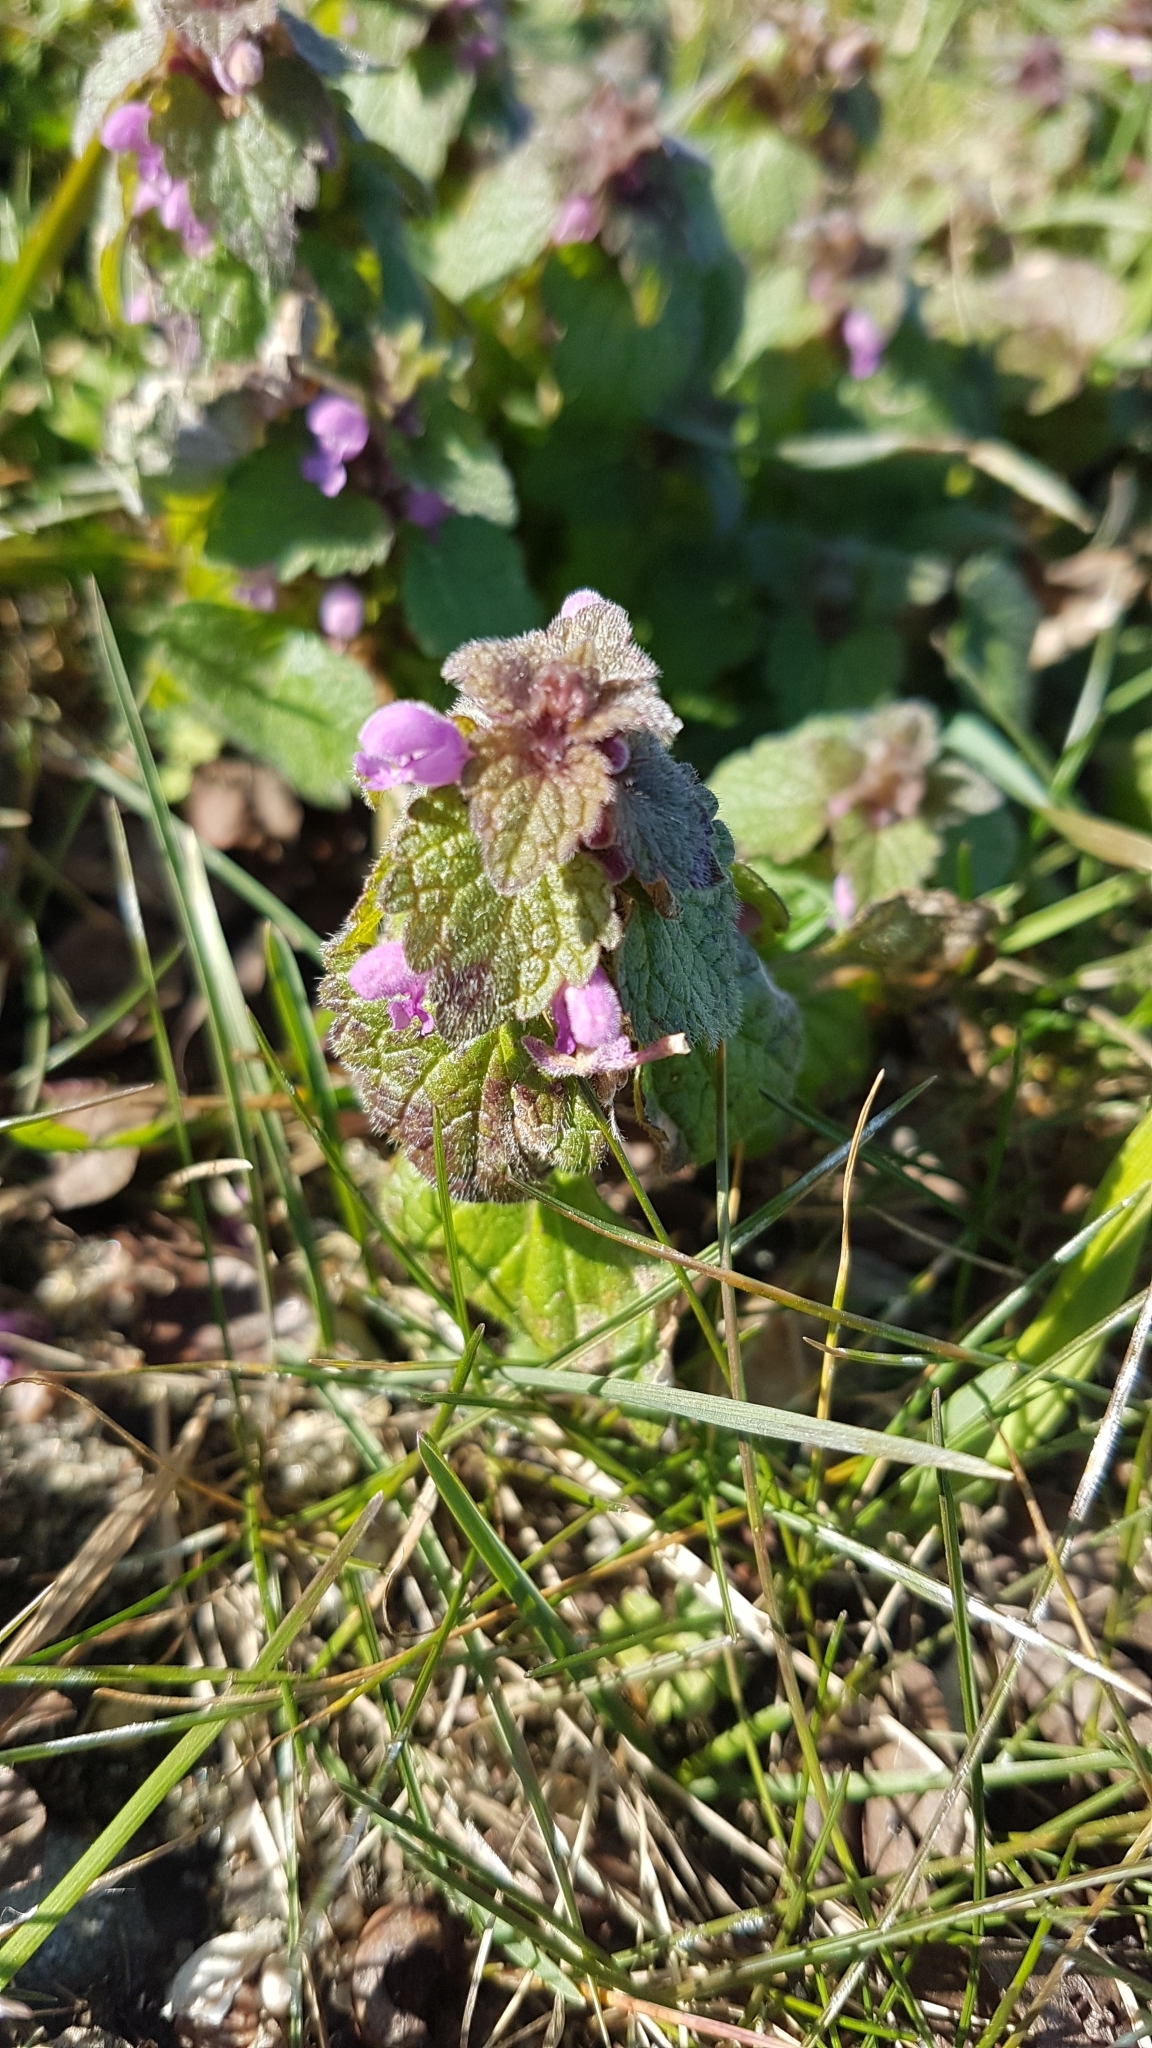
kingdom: Plantae
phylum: Tracheophyta
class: Magnoliopsida
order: Lamiales
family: Lamiaceae
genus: Lamium
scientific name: Lamium purpureum
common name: Red dead-nettle
